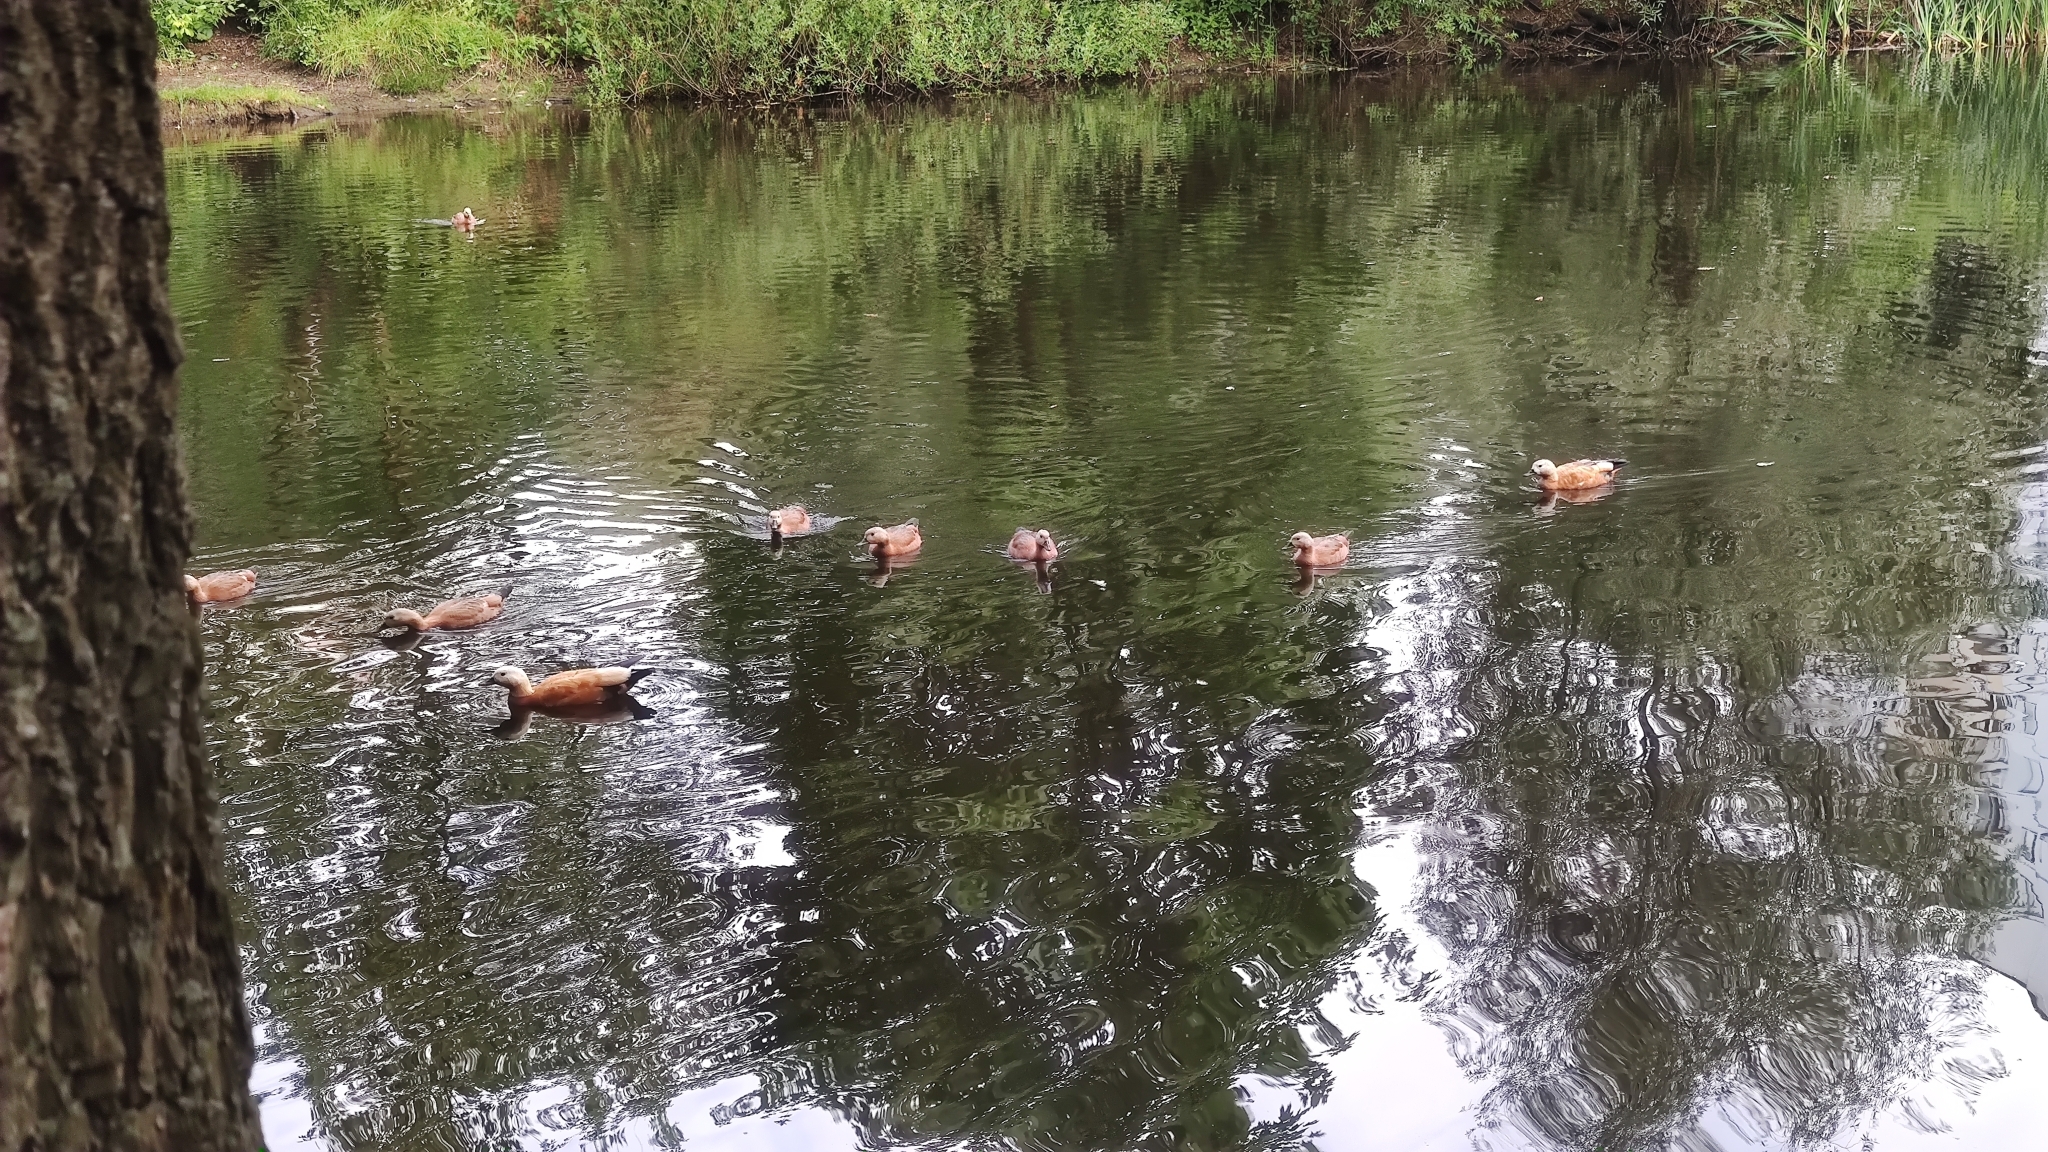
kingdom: Animalia
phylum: Chordata
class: Aves
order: Anseriformes
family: Anatidae
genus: Tadorna
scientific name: Tadorna ferruginea
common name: Ruddy shelduck
